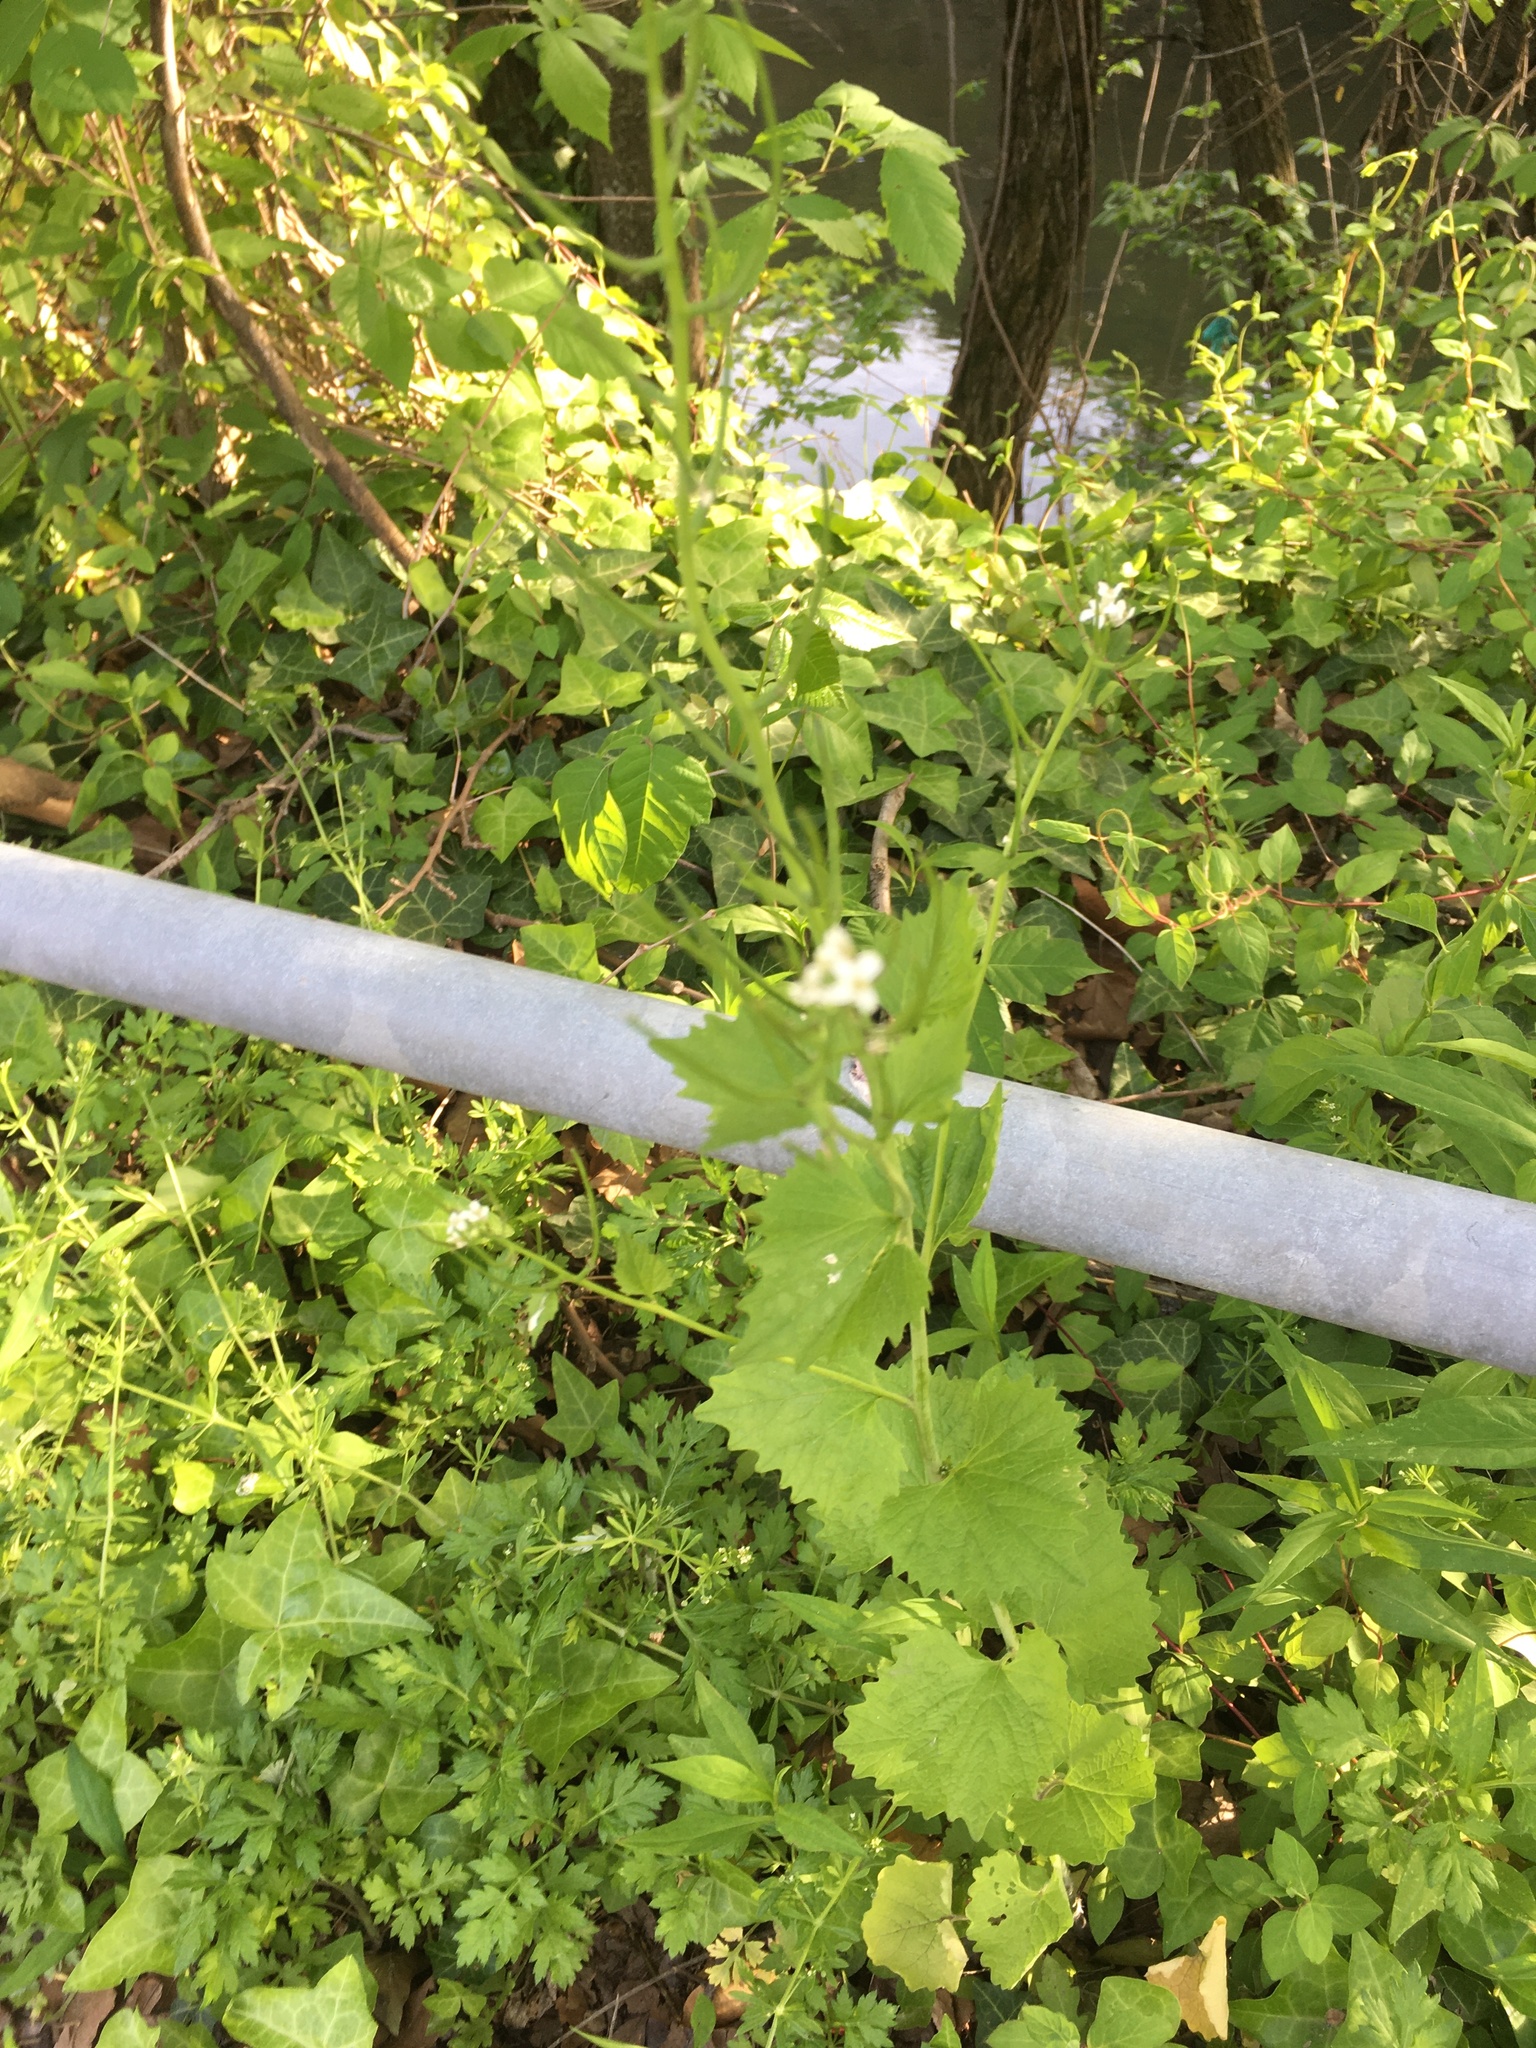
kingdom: Plantae
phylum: Tracheophyta
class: Magnoliopsida
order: Brassicales
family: Brassicaceae
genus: Alliaria
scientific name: Alliaria petiolata
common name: Garlic mustard
